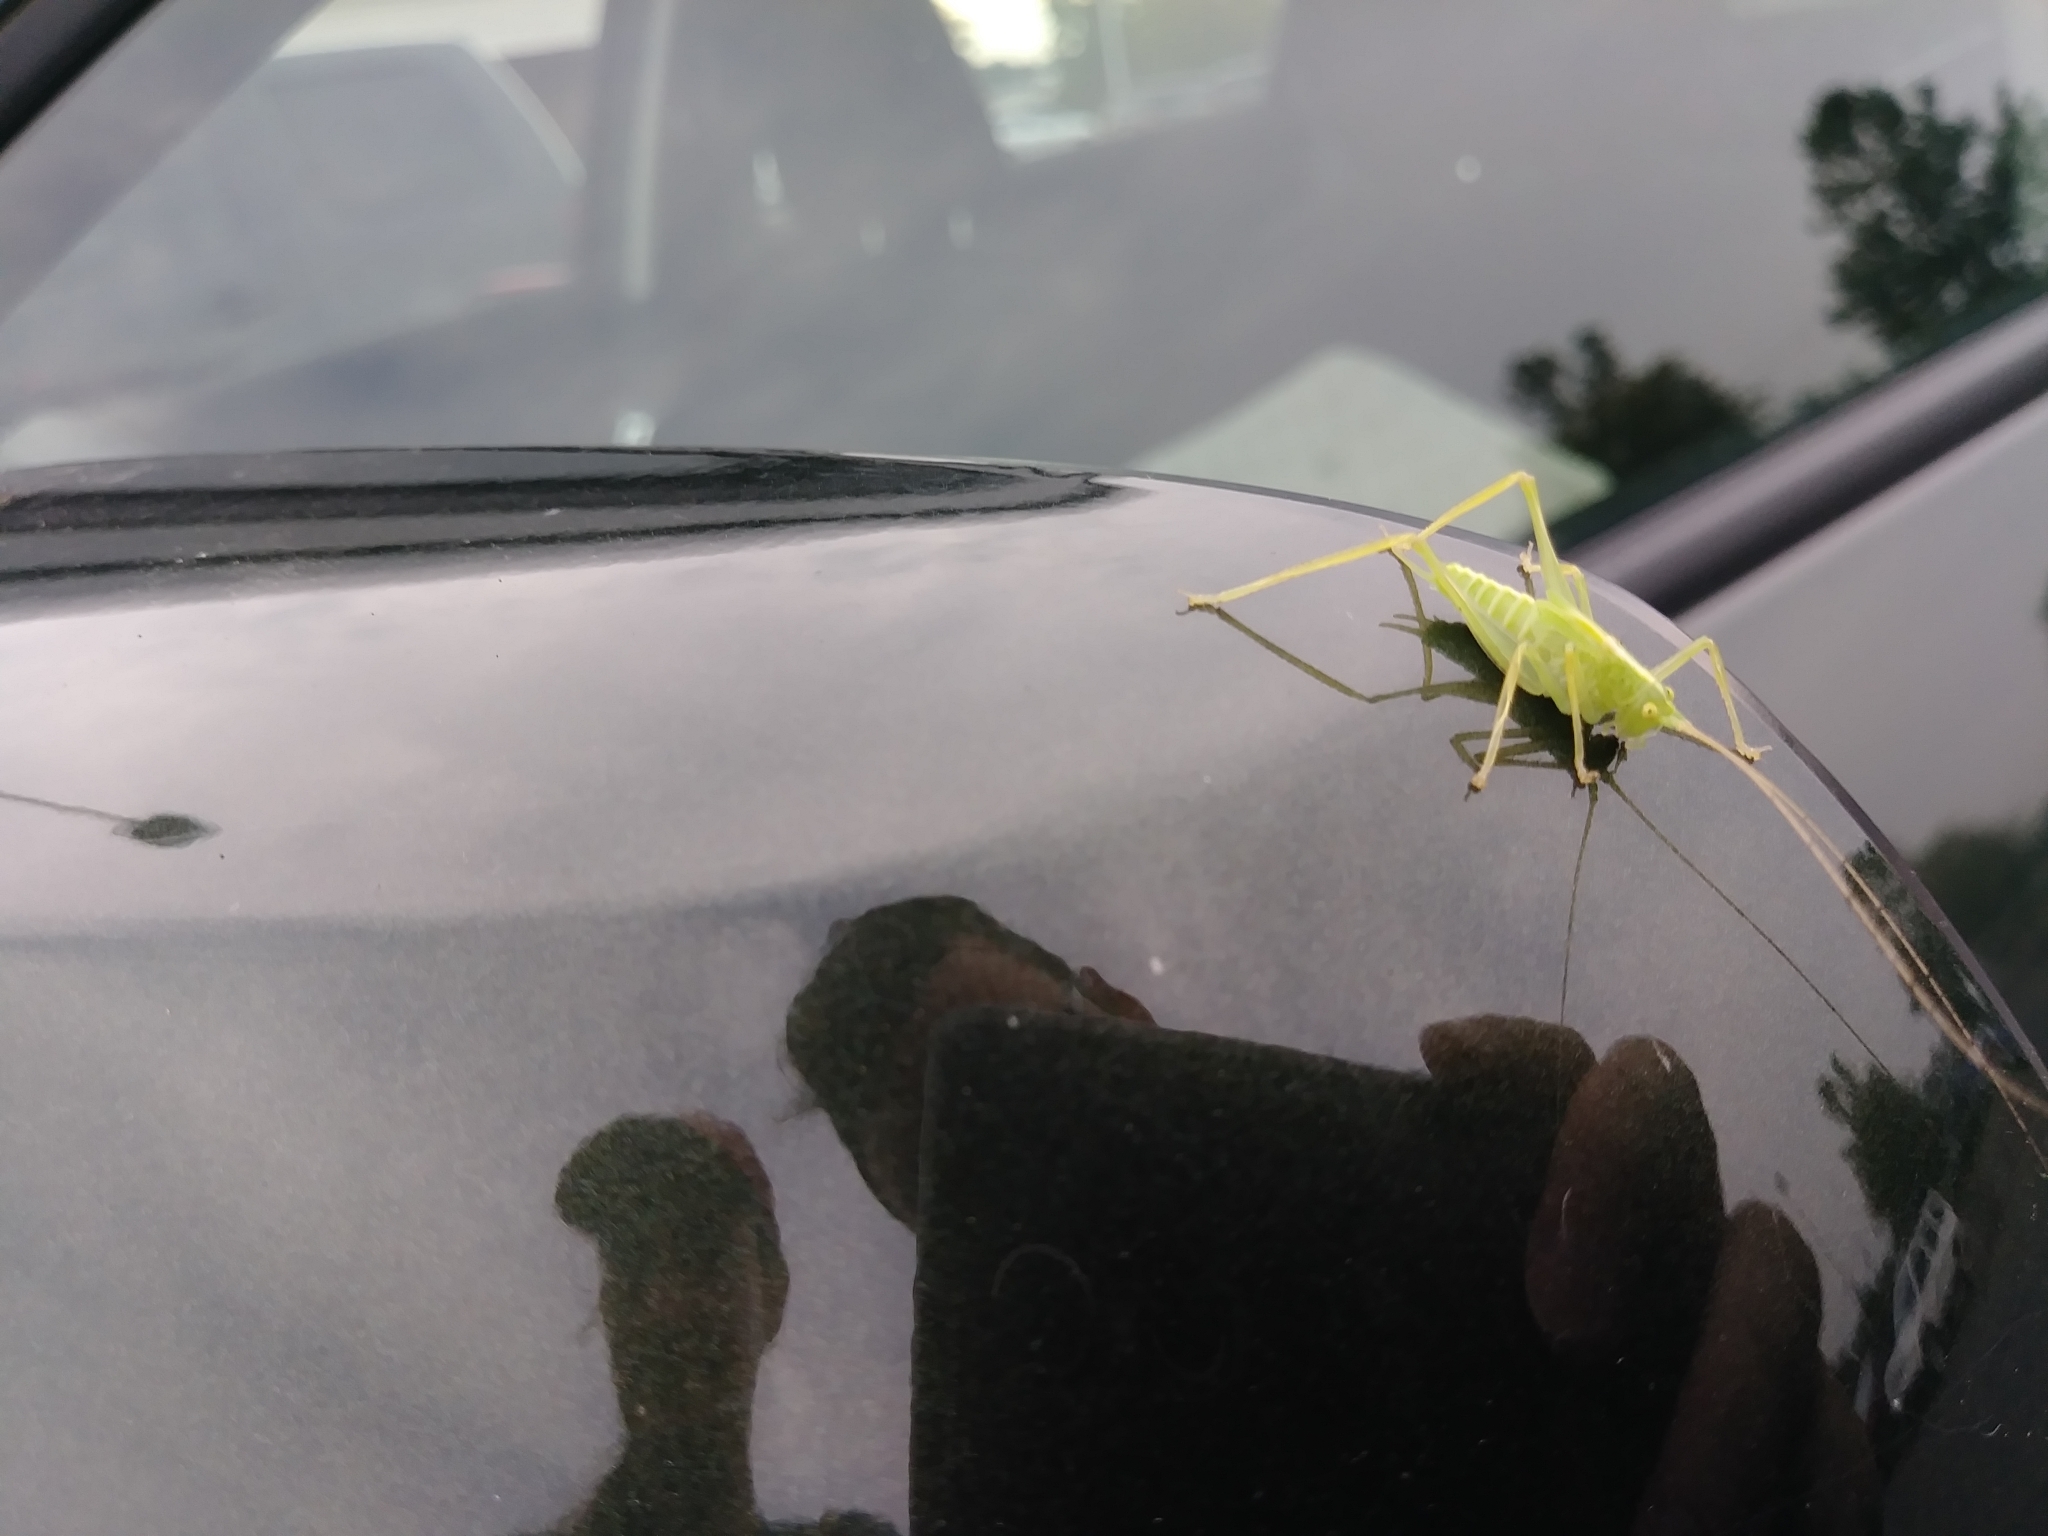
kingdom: Animalia
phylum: Arthropoda
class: Insecta
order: Orthoptera
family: Tettigoniidae
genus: Meconema
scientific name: Meconema thalassinum
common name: Oak bush-cricket
